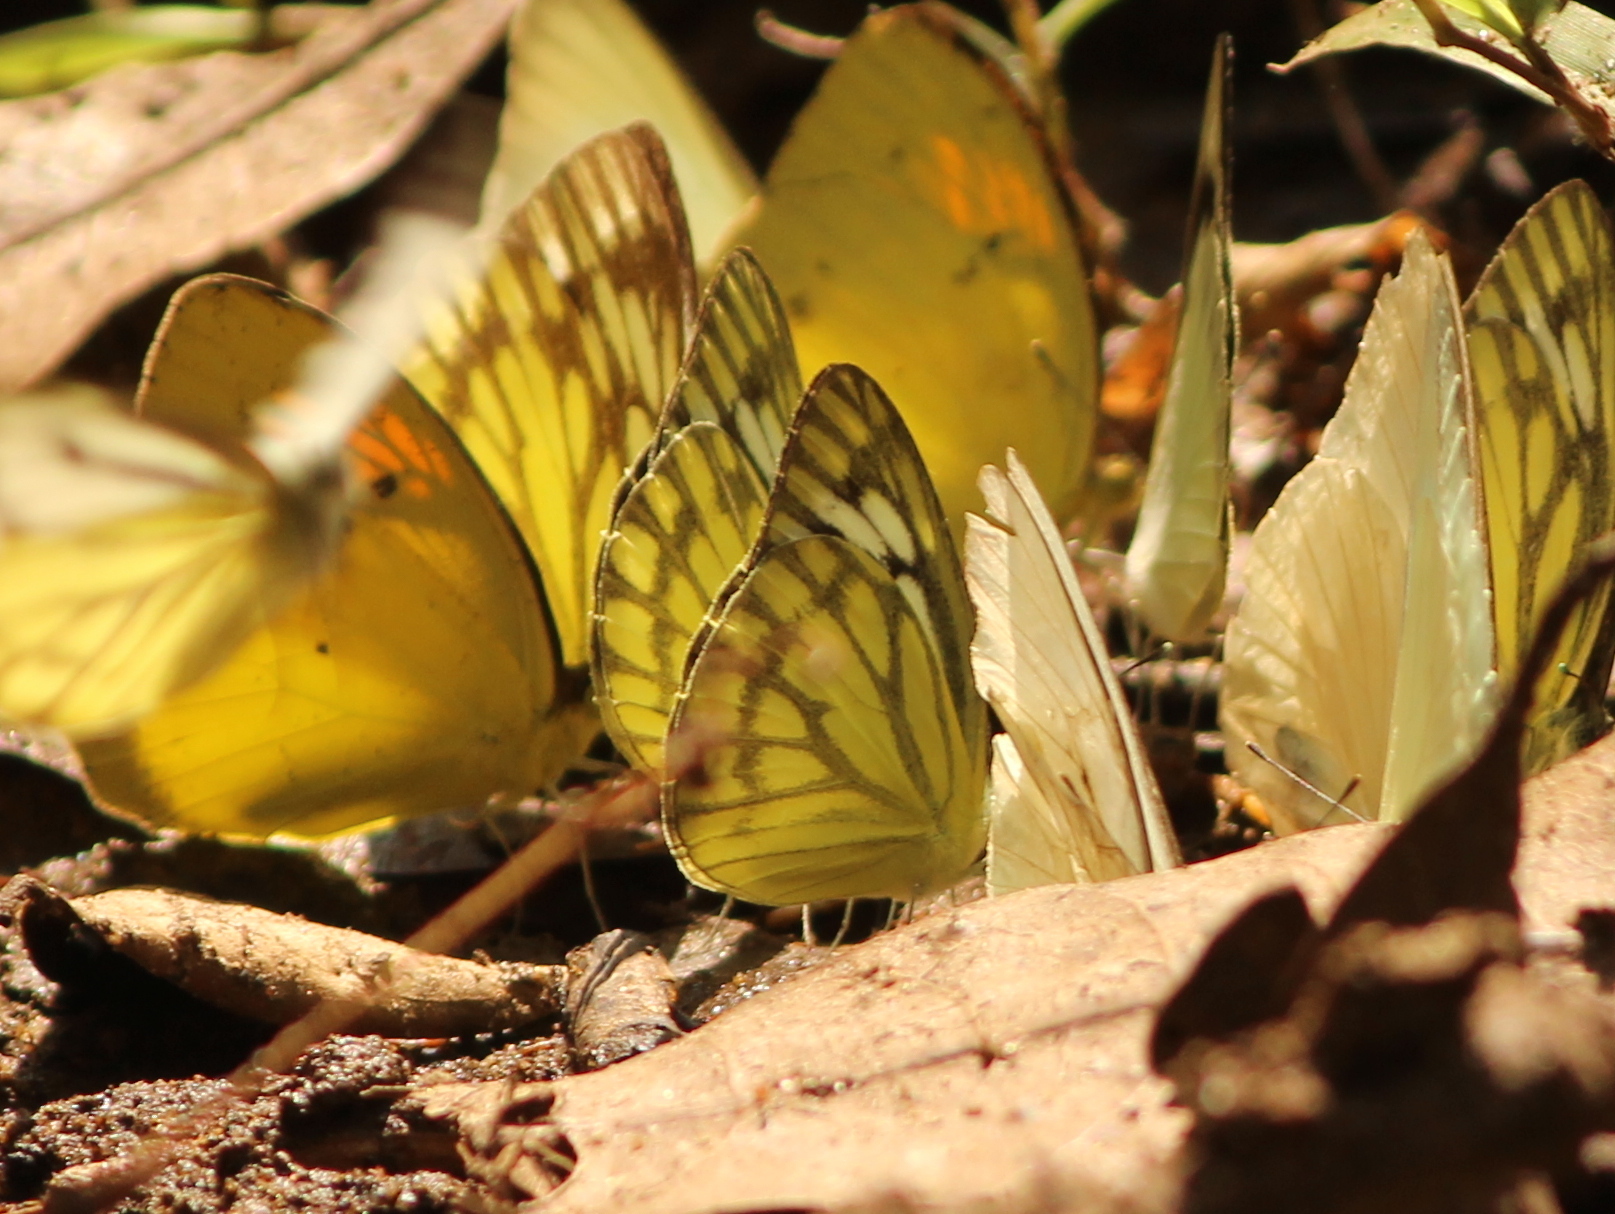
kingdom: Animalia
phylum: Arthropoda
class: Insecta
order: Lepidoptera
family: Pieridae
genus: Cepora
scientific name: Cepora nerissa
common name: Common gull
